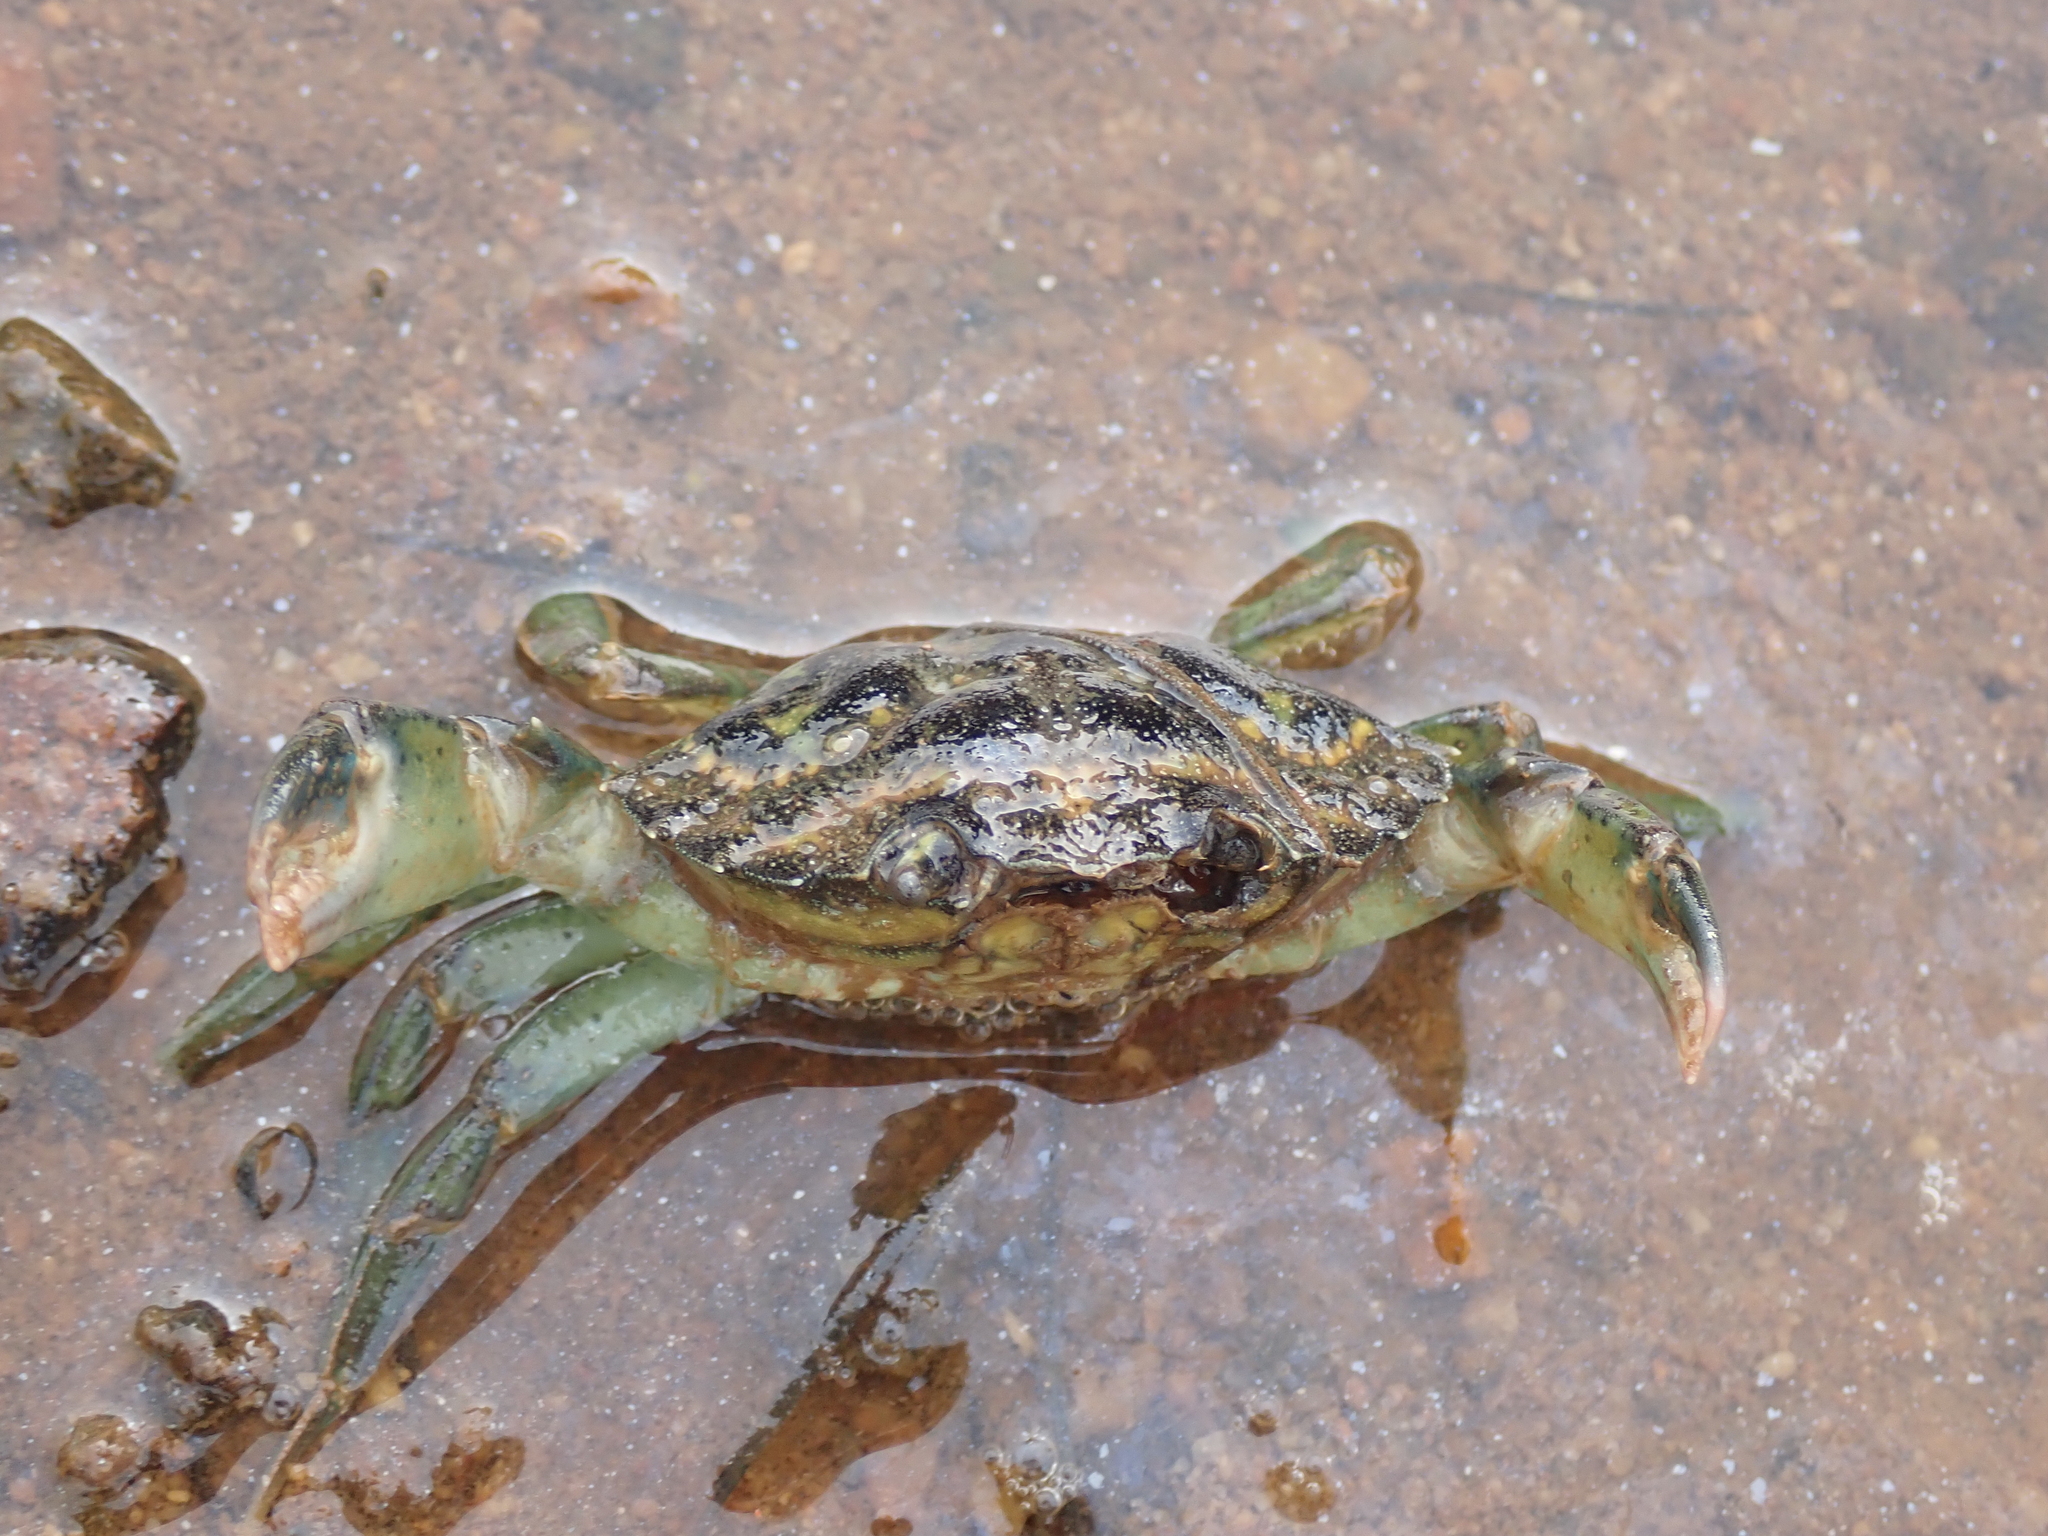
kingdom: Animalia
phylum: Arthropoda
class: Malacostraca
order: Decapoda
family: Carcinidae
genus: Carcinus
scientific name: Carcinus maenas
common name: European green crab
